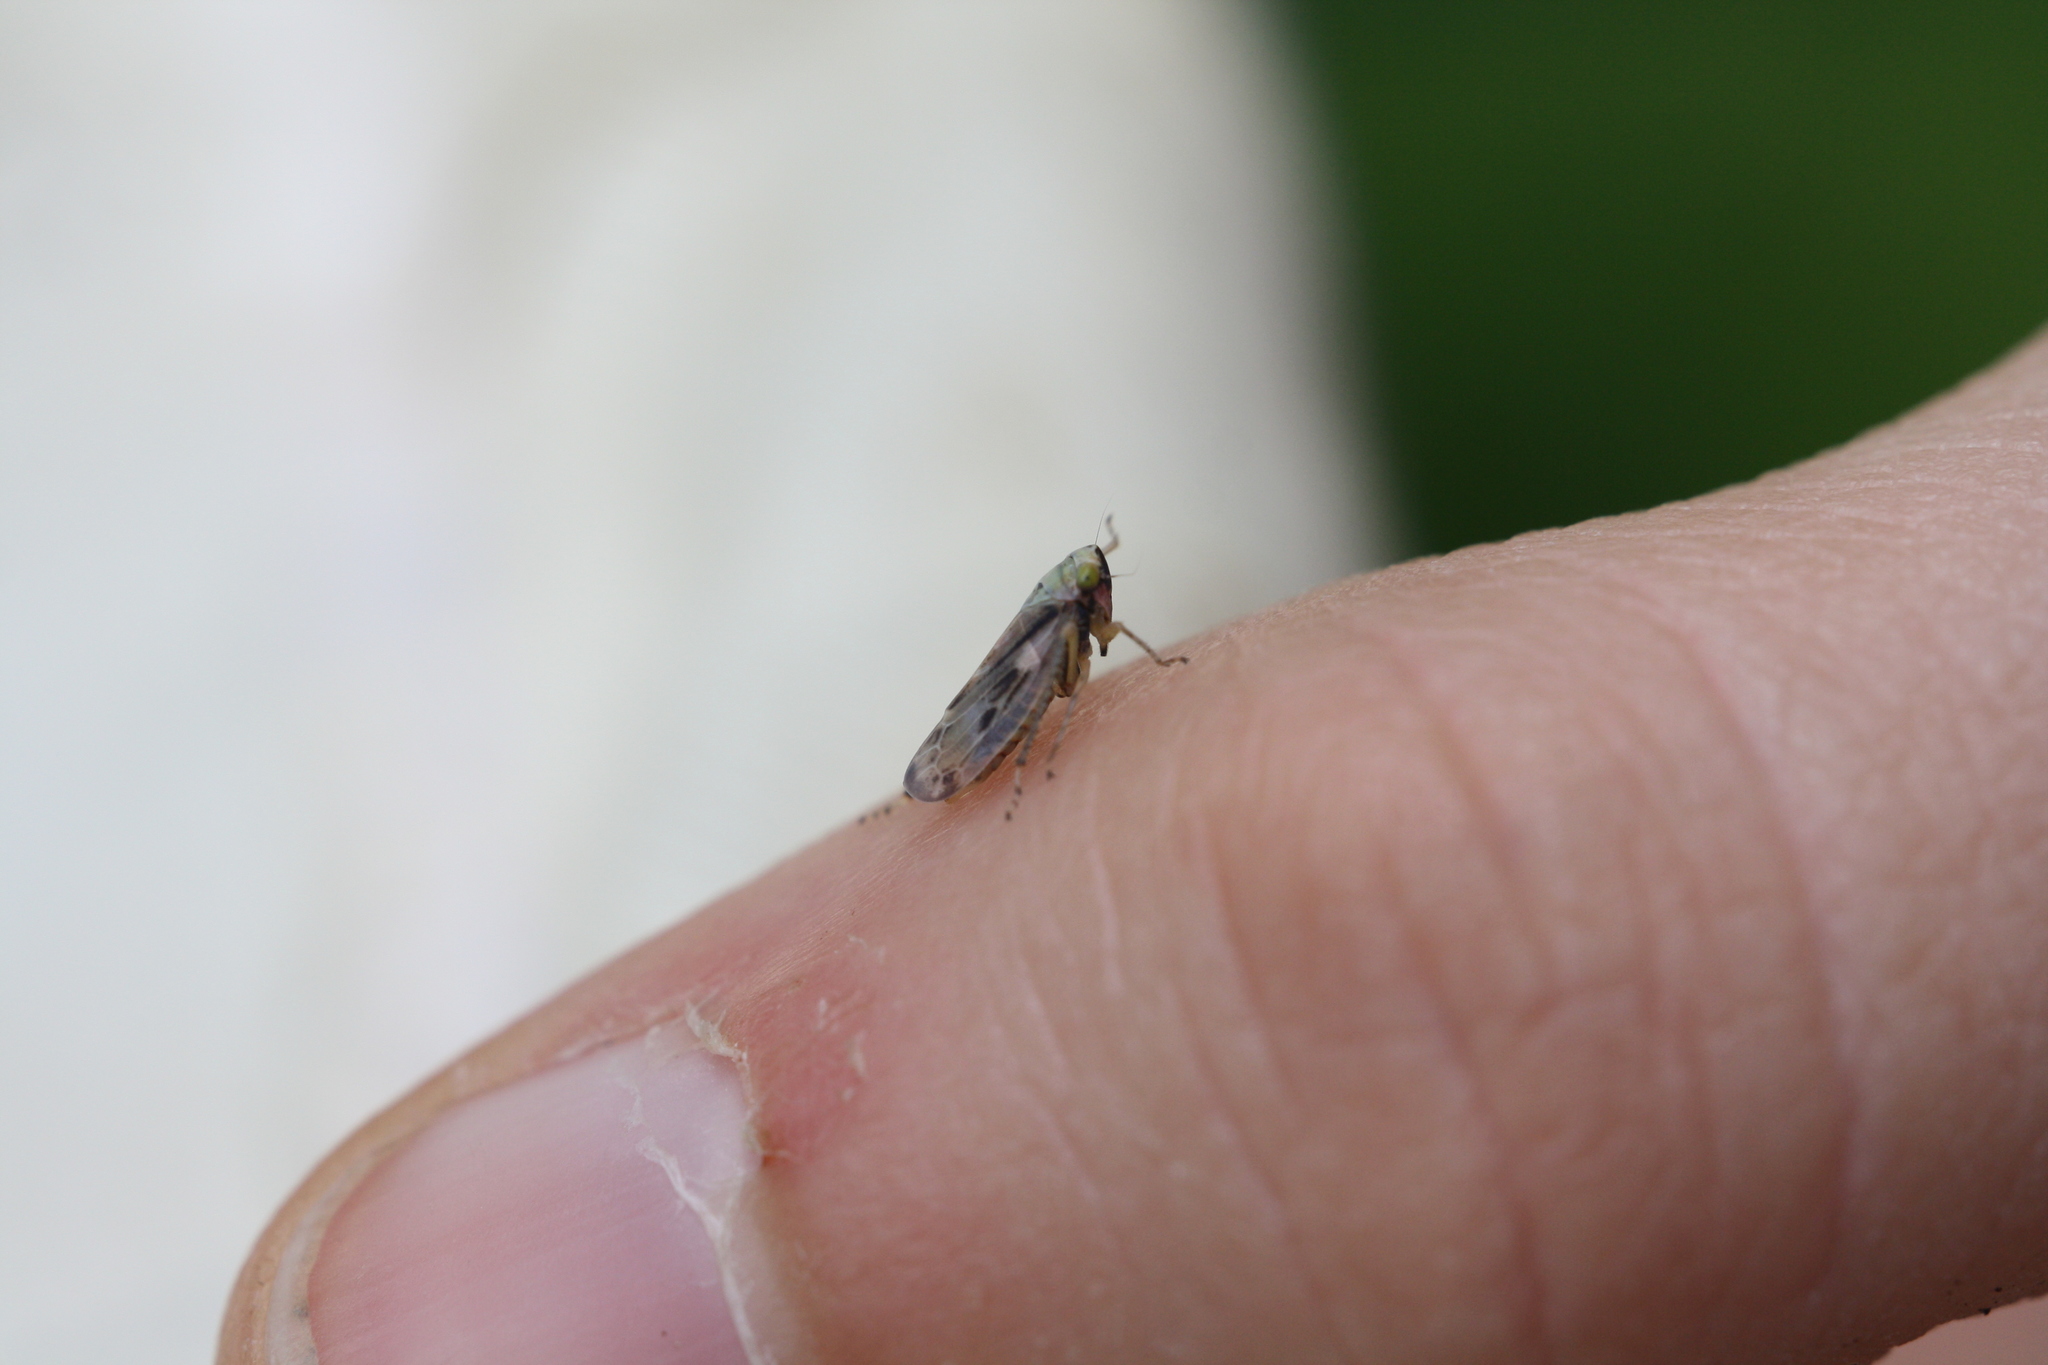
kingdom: Animalia
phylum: Arthropoda
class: Insecta
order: Hemiptera
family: Cicadellidae
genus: Pithyotettix
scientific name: Pithyotettix abietinus
